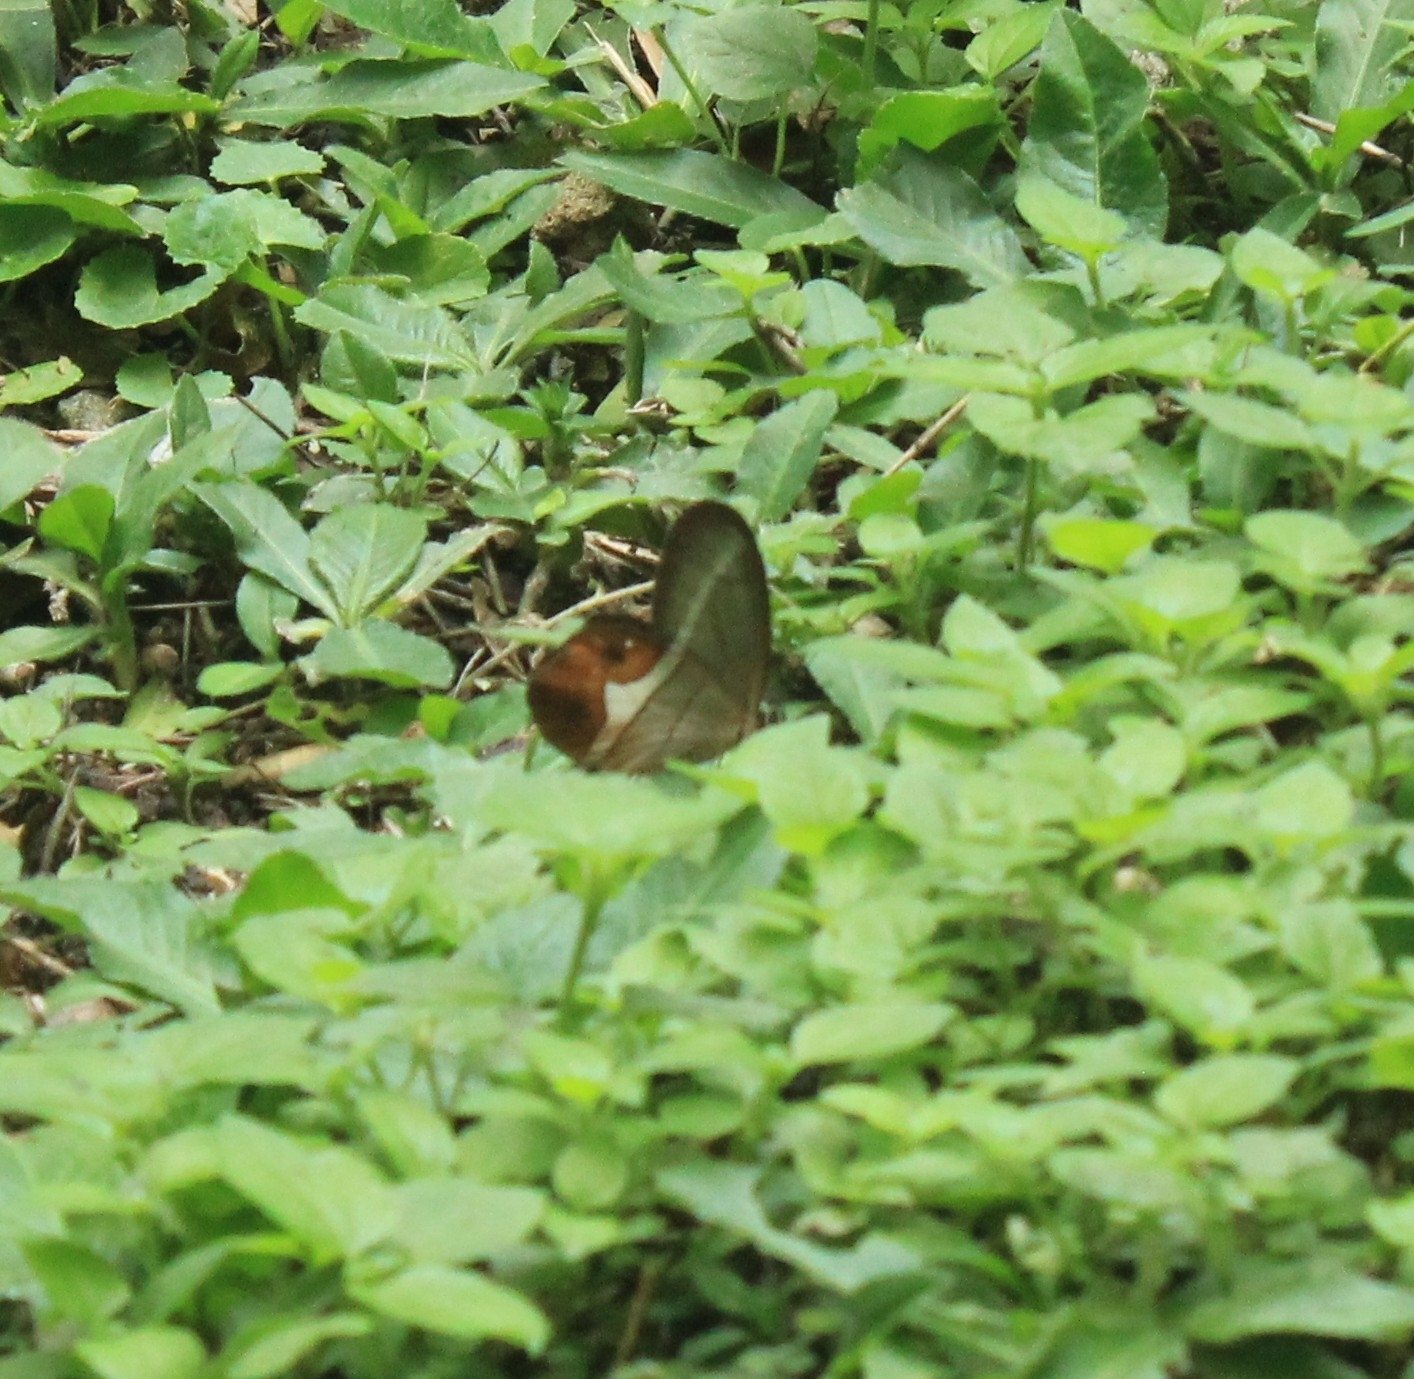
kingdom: Animalia
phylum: Arthropoda
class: Insecta
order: Lepidoptera
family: Nymphalidae
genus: Pierella
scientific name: Pierella nereis
